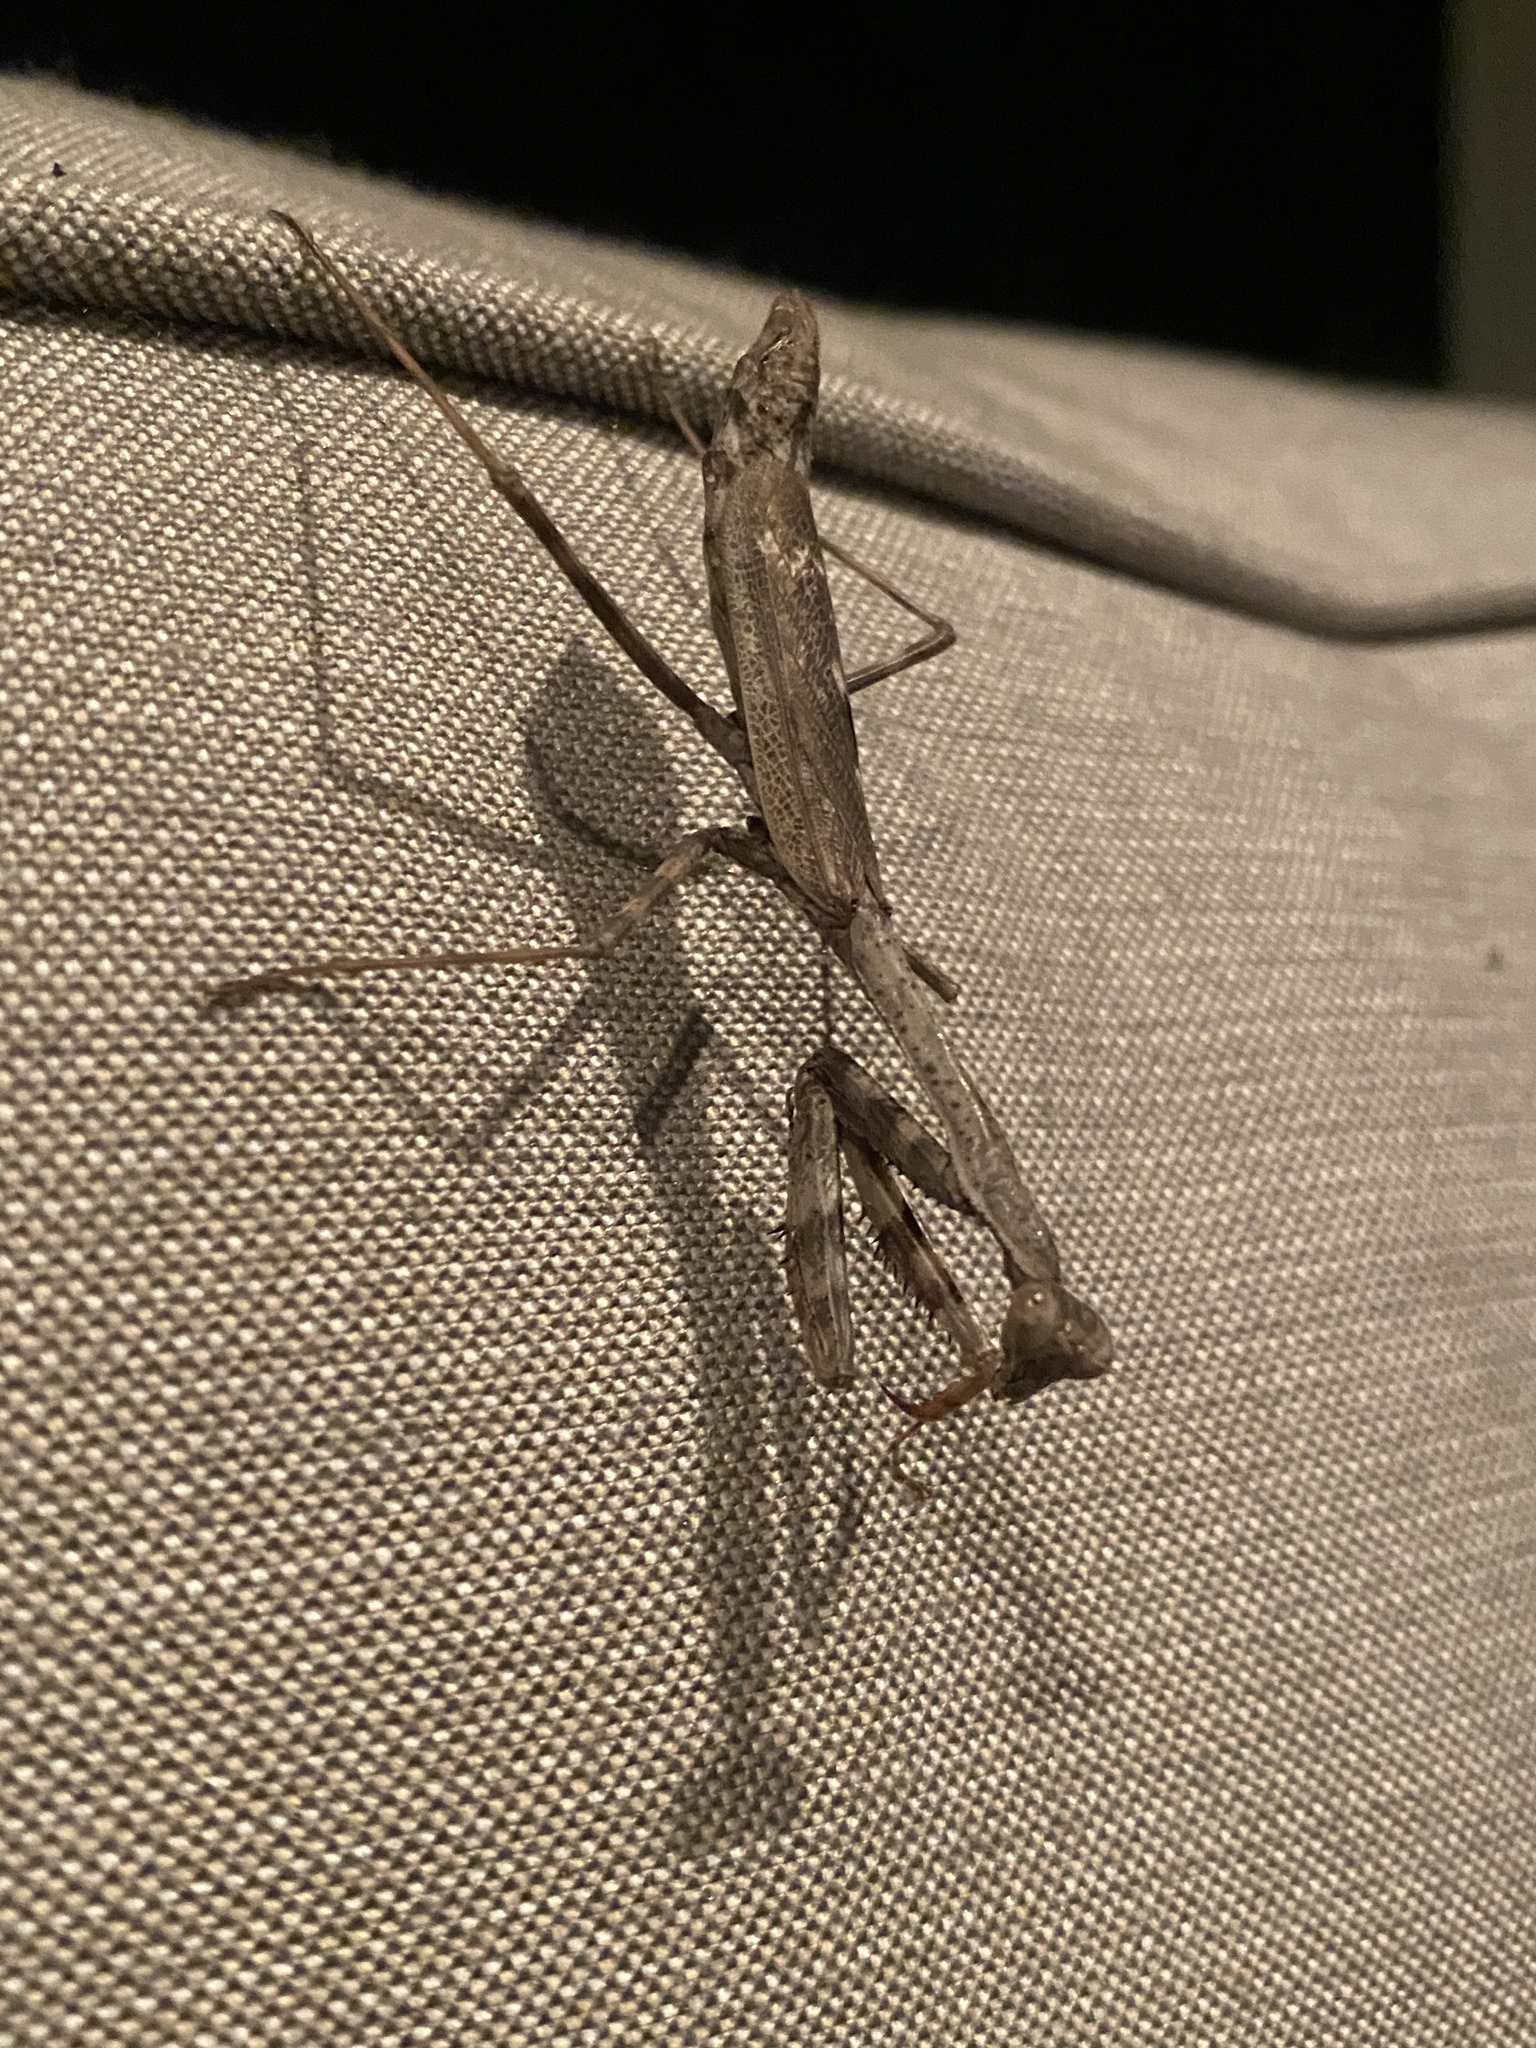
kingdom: Animalia
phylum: Arthropoda
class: Insecta
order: Mantodea
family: Mantidae
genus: Stagmomantis
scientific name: Stagmomantis carolina
